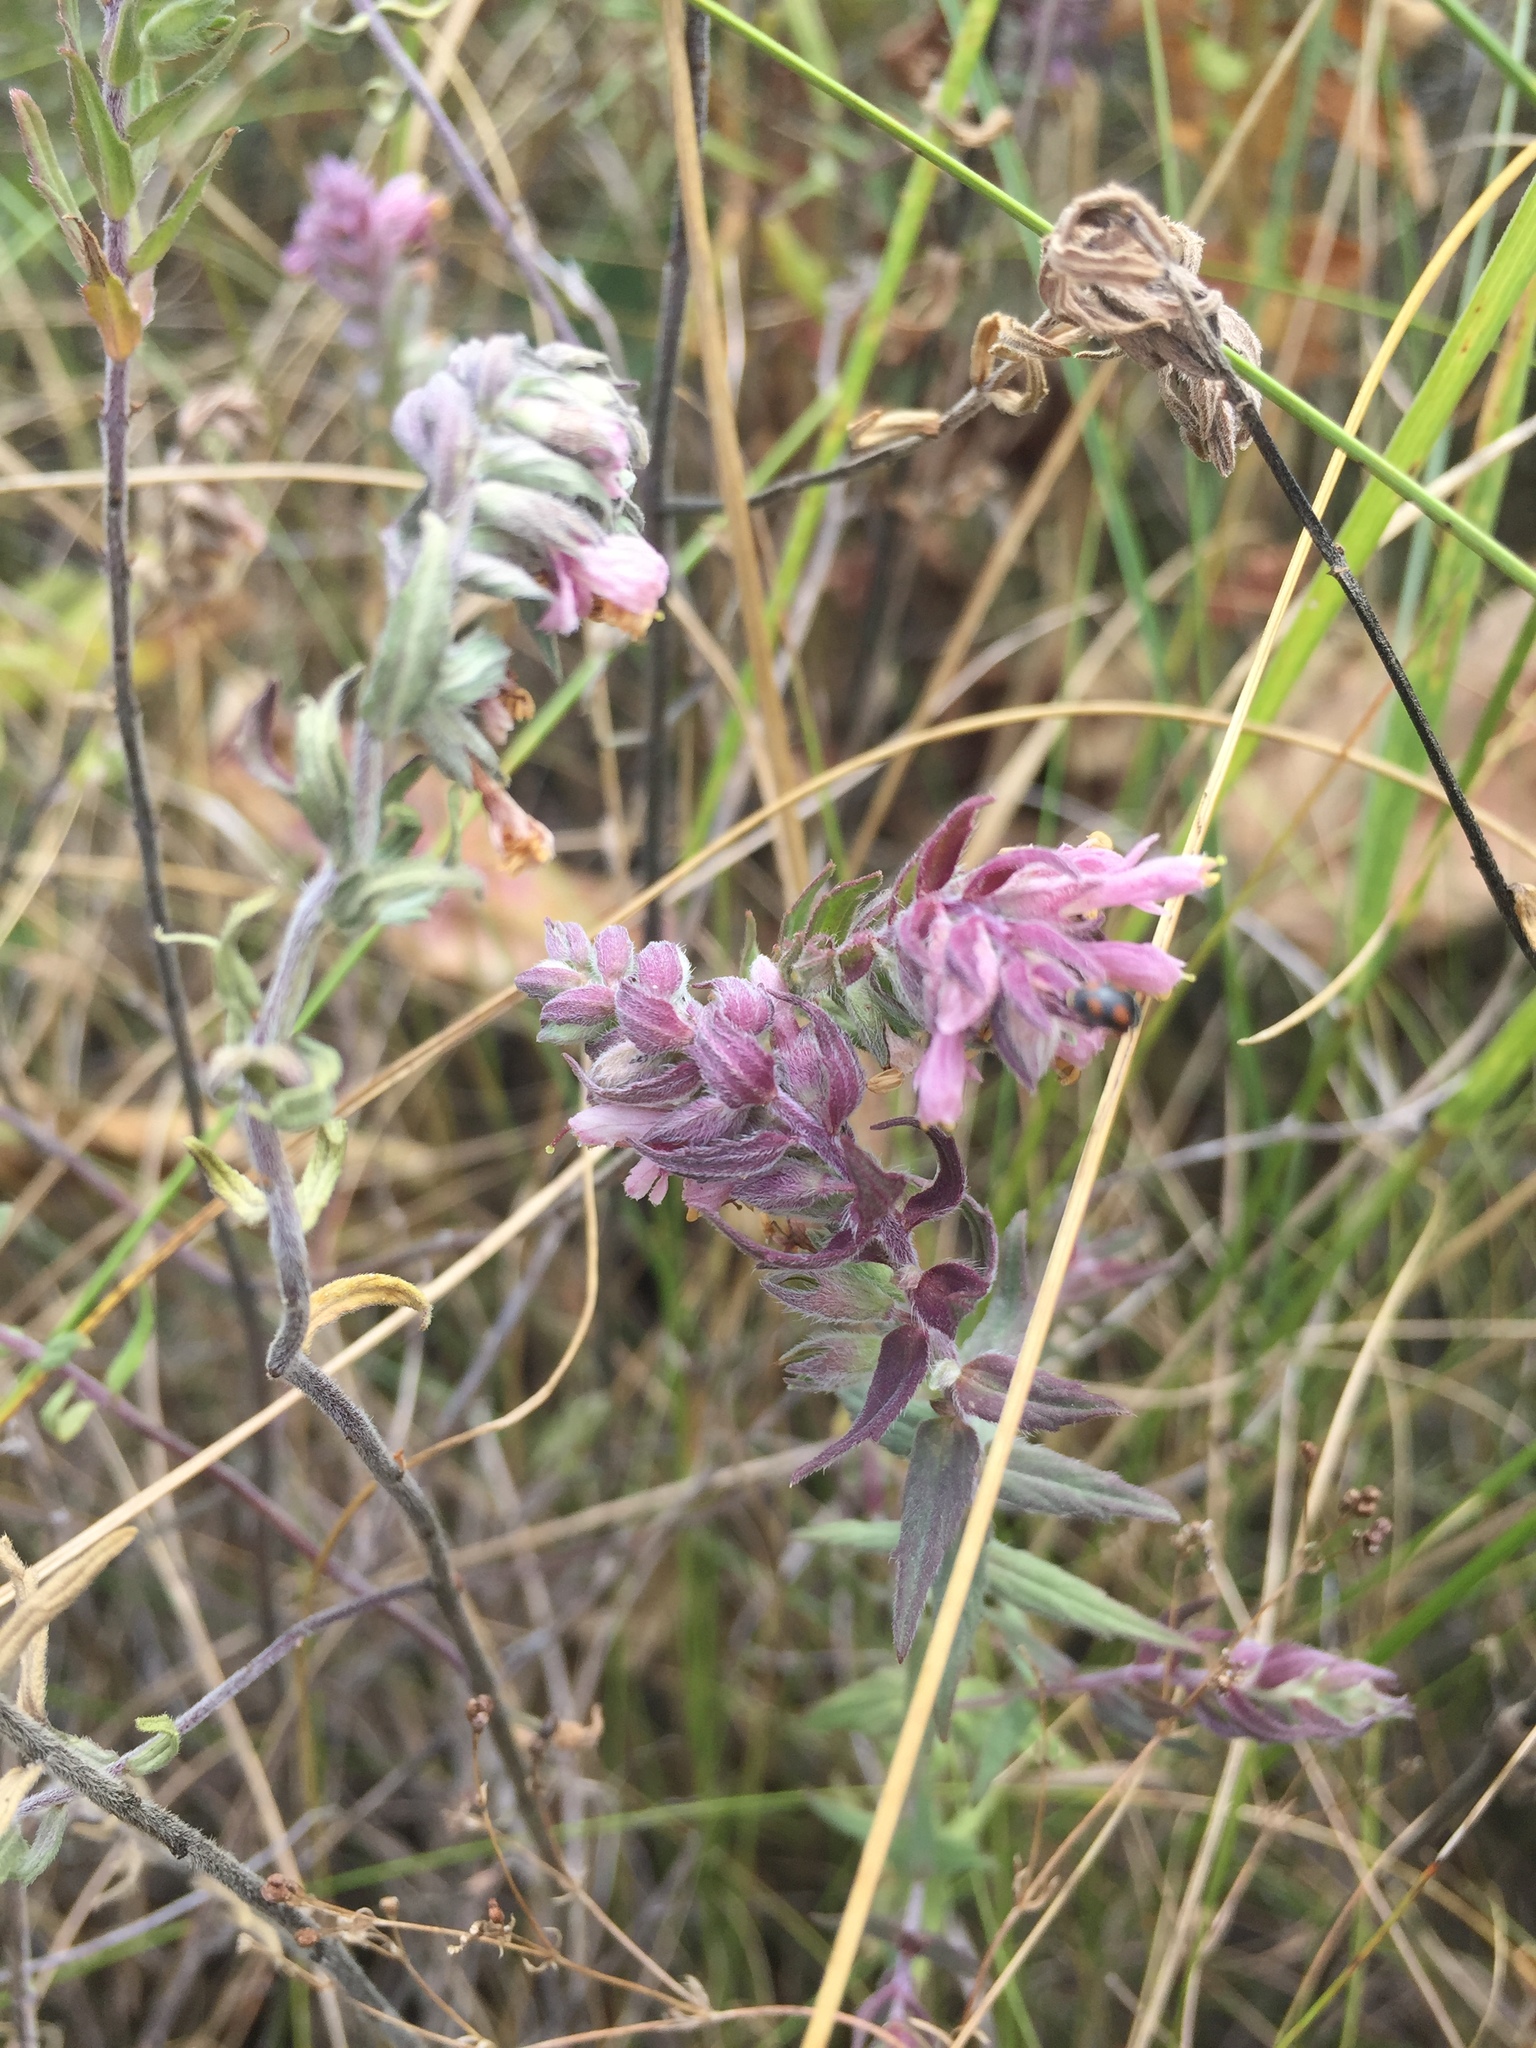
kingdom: Plantae
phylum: Tracheophyta
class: Magnoliopsida
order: Lamiales
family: Orobanchaceae
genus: Odontites
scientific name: Odontites vulgaris
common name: Broomrape
